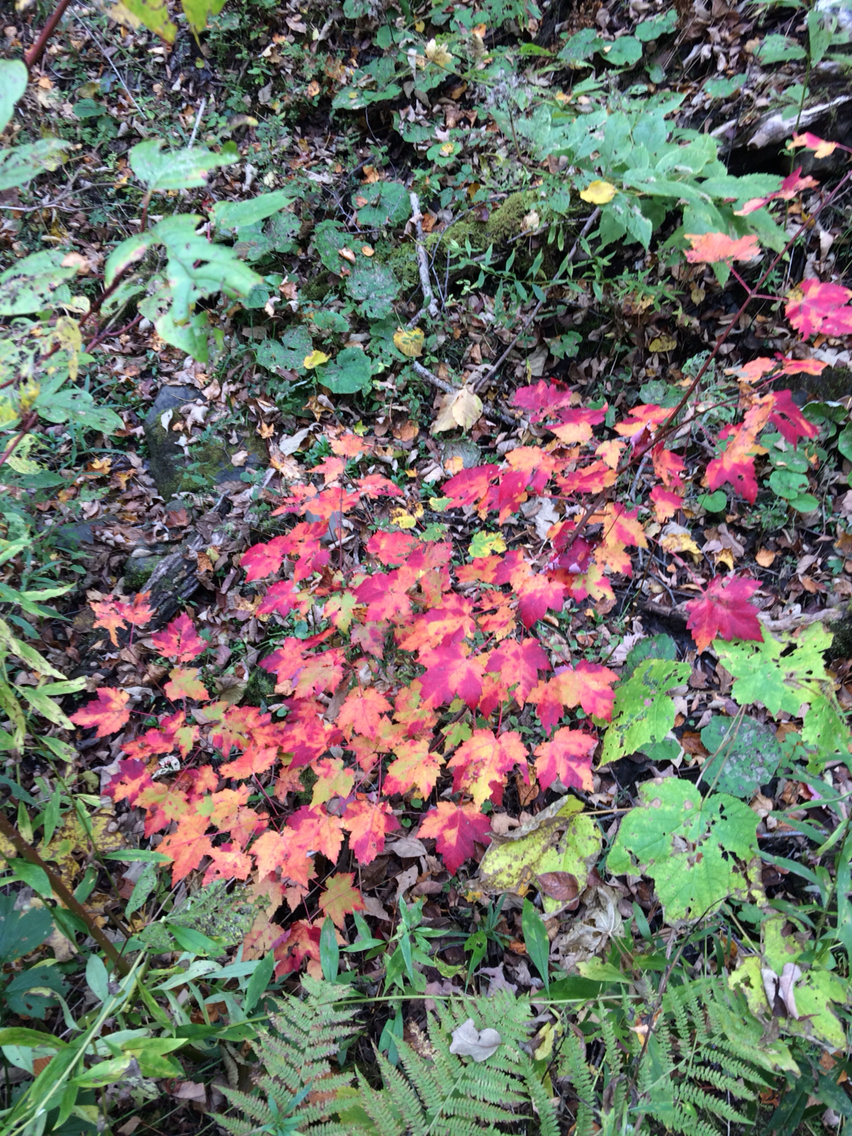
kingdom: Plantae
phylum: Tracheophyta
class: Magnoliopsida
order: Sapindales
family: Sapindaceae
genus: Acer
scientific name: Acer rubrum
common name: Red maple
